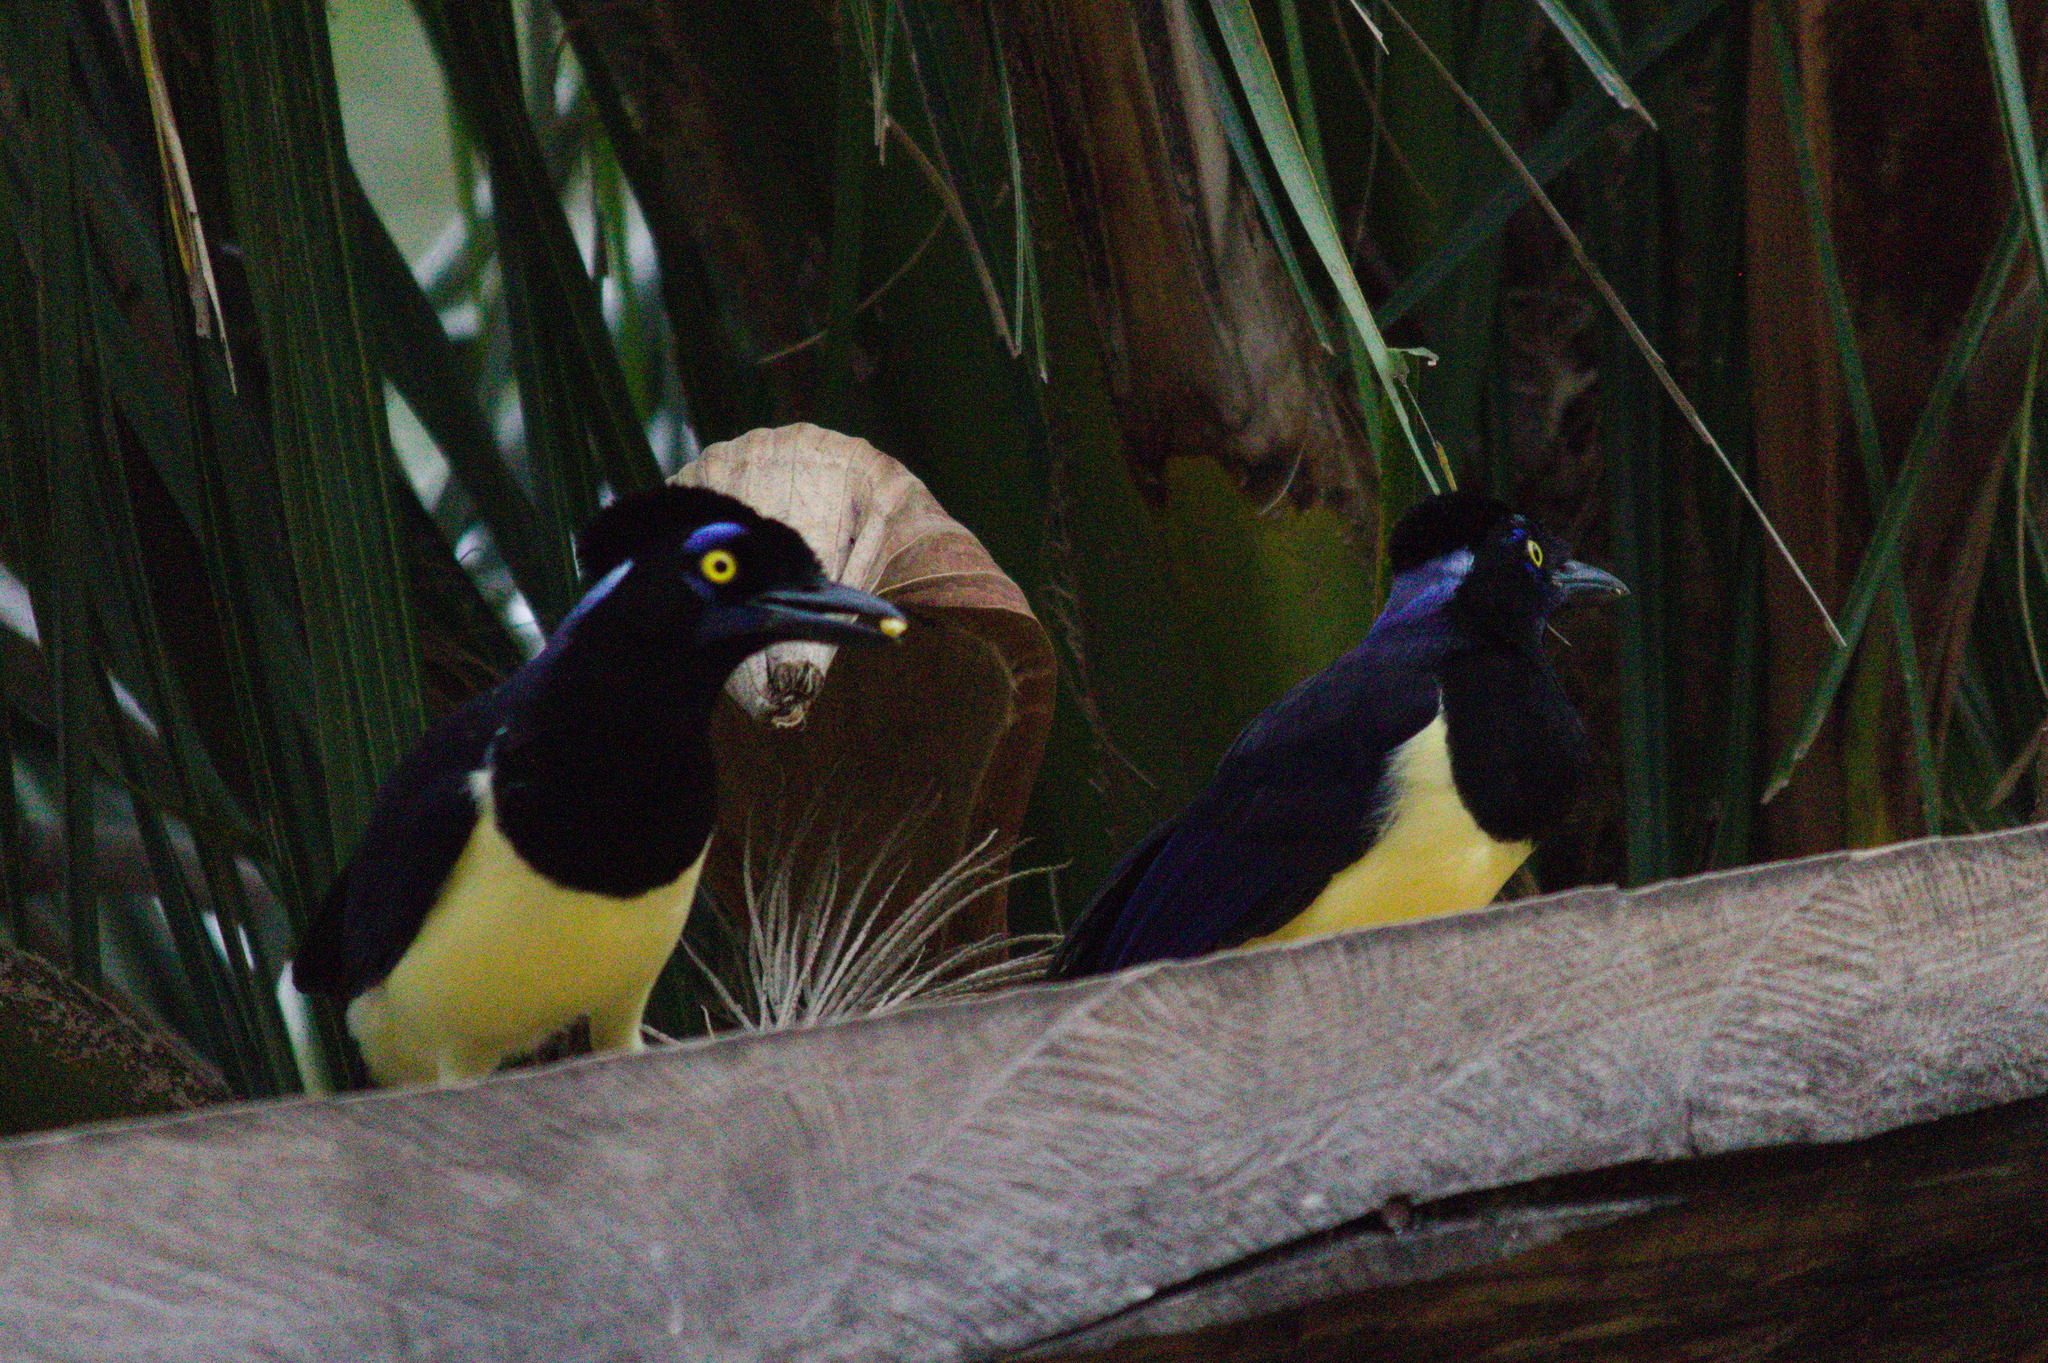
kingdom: Animalia
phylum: Chordata
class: Aves
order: Passeriformes
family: Corvidae
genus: Cyanocorax
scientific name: Cyanocorax chrysops
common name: Plush-crested jay
